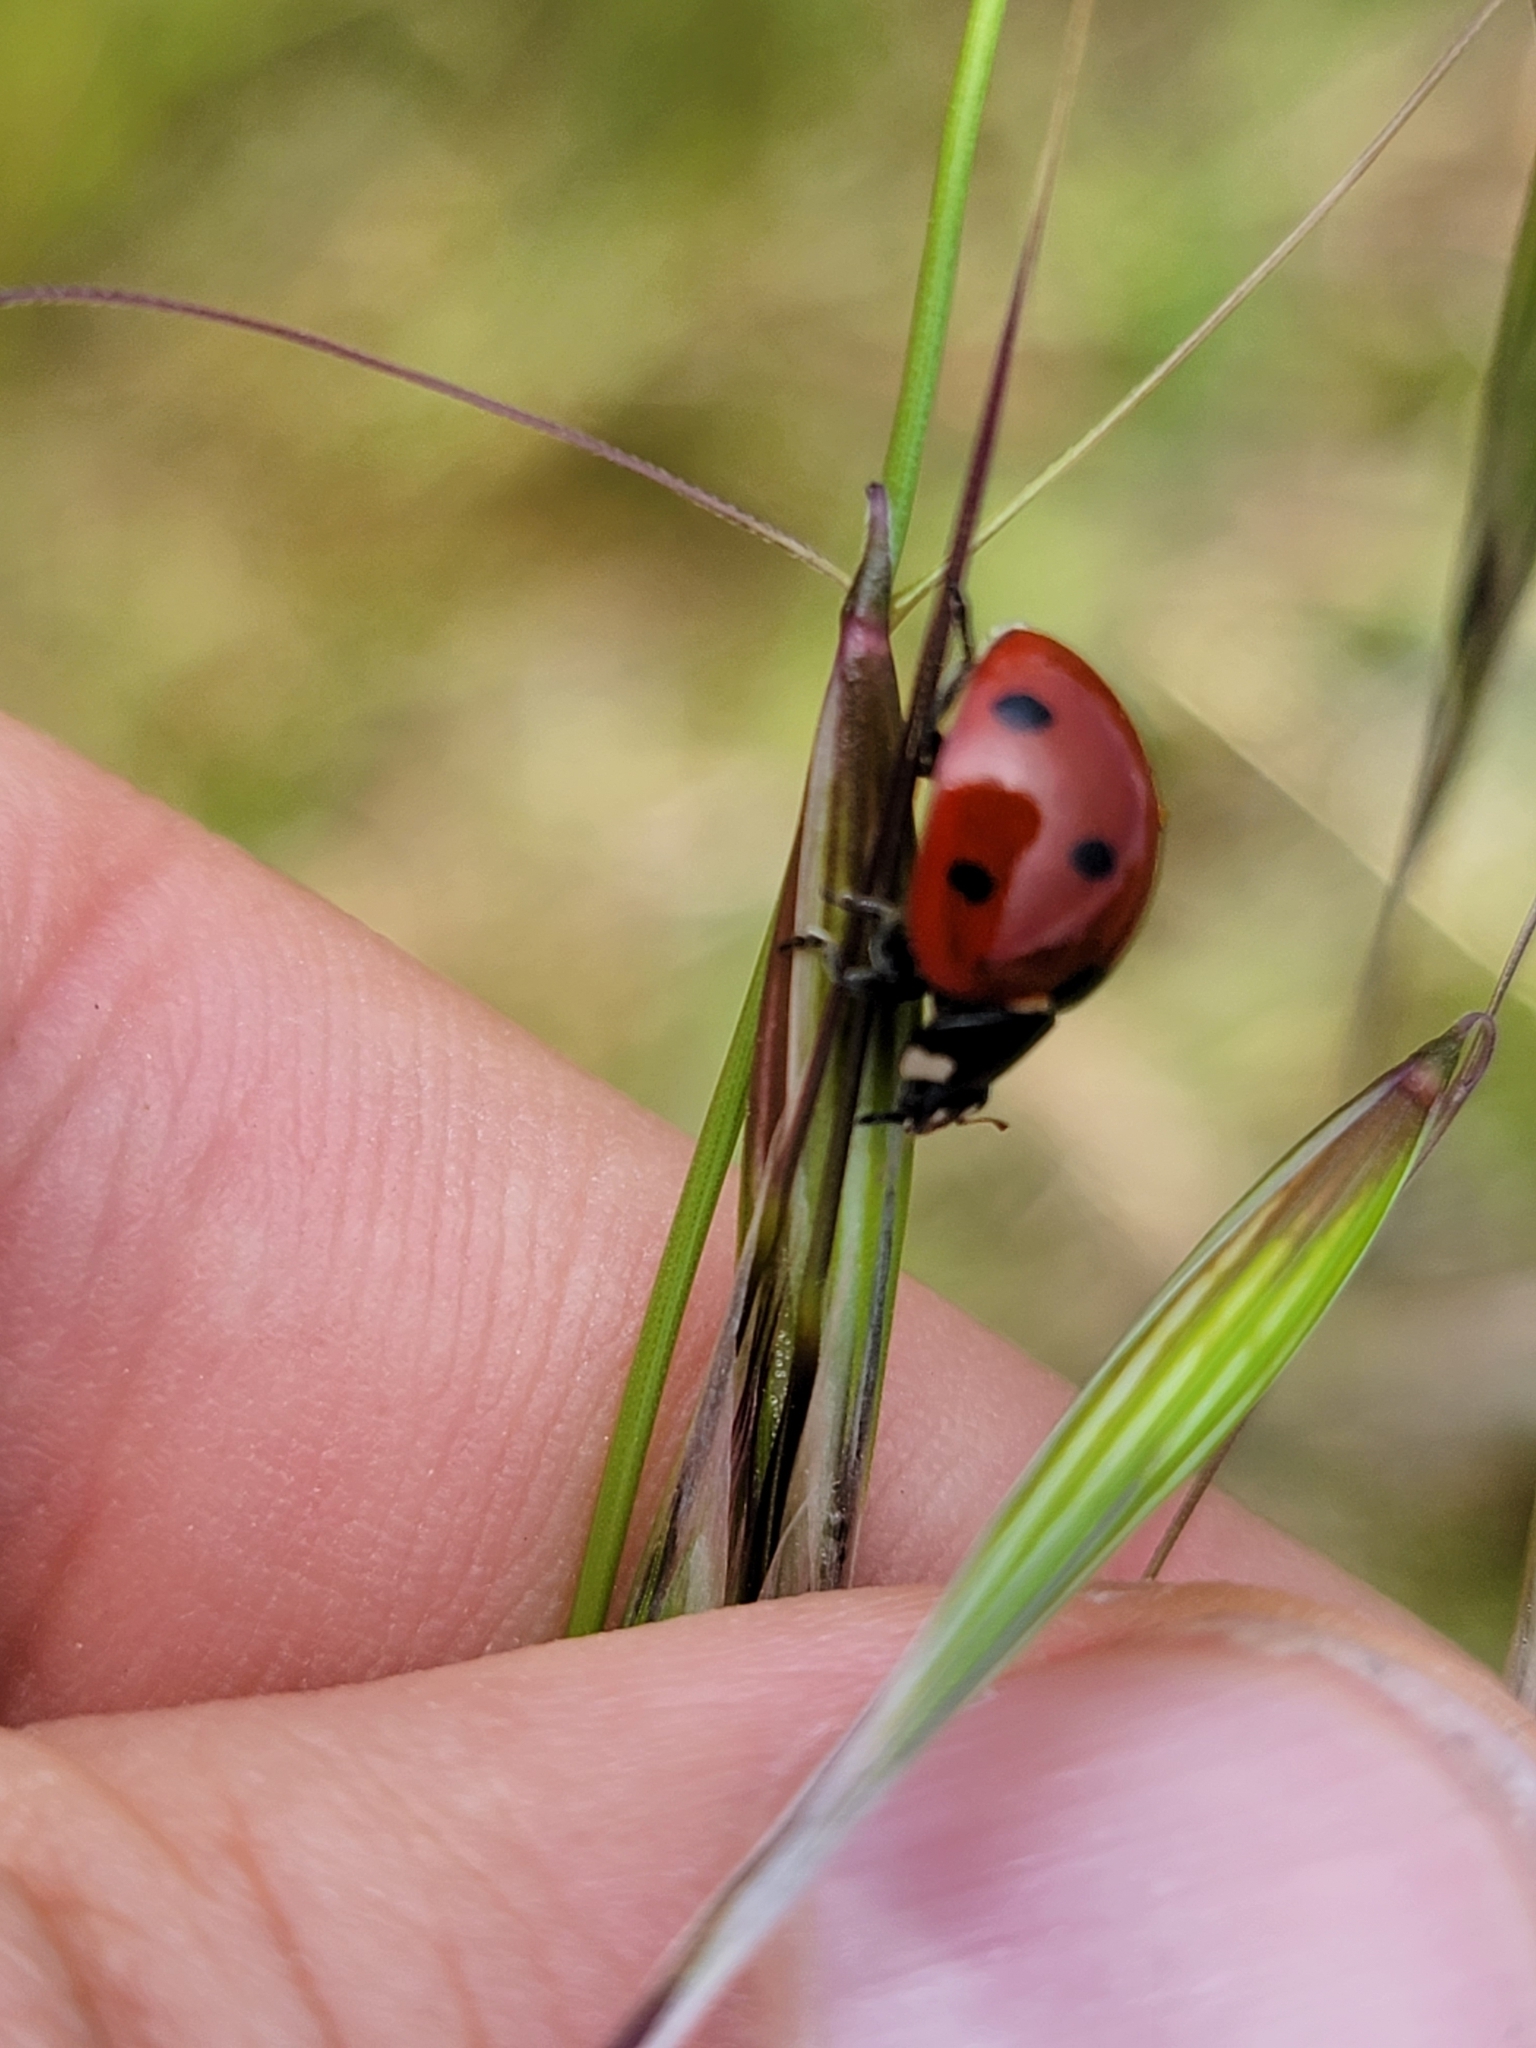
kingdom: Animalia
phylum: Arthropoda
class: Insecta
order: Coleoptera
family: Coccinellidae
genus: Coccinella
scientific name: Coccinella septempunctata
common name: Sevenspotted lady beetle
